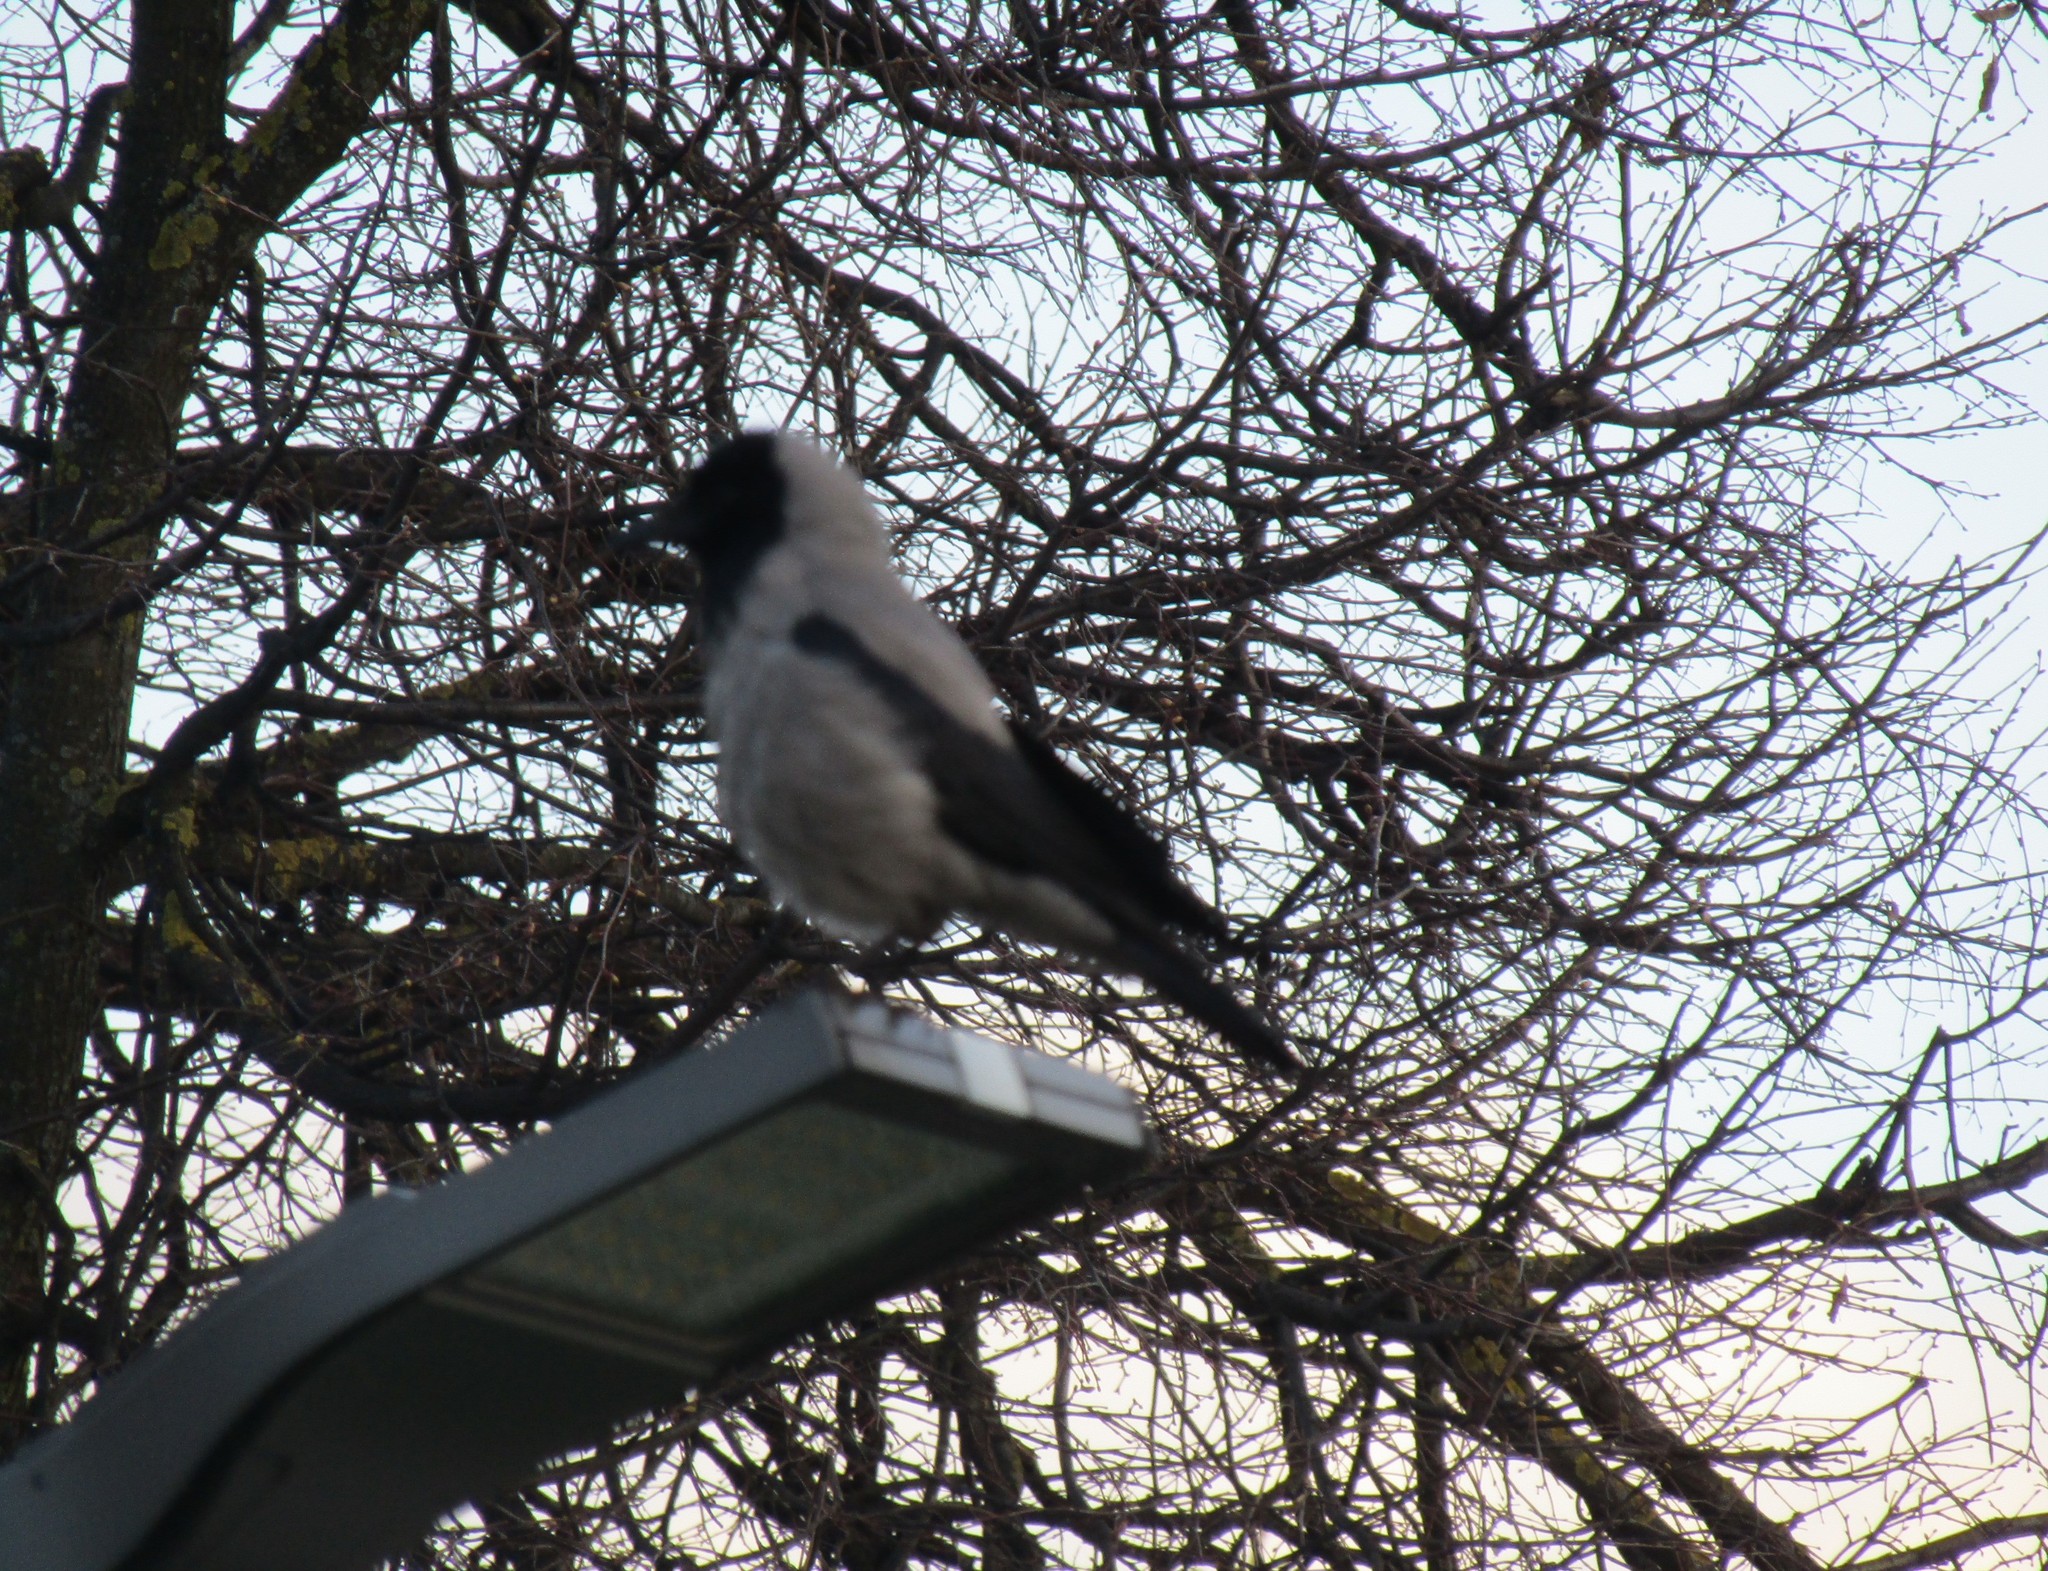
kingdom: Animalia
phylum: Chordata
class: Aves
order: Passeriformes
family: Corvidae
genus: Corvus
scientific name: Corvus cornix
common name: Hooded crow
